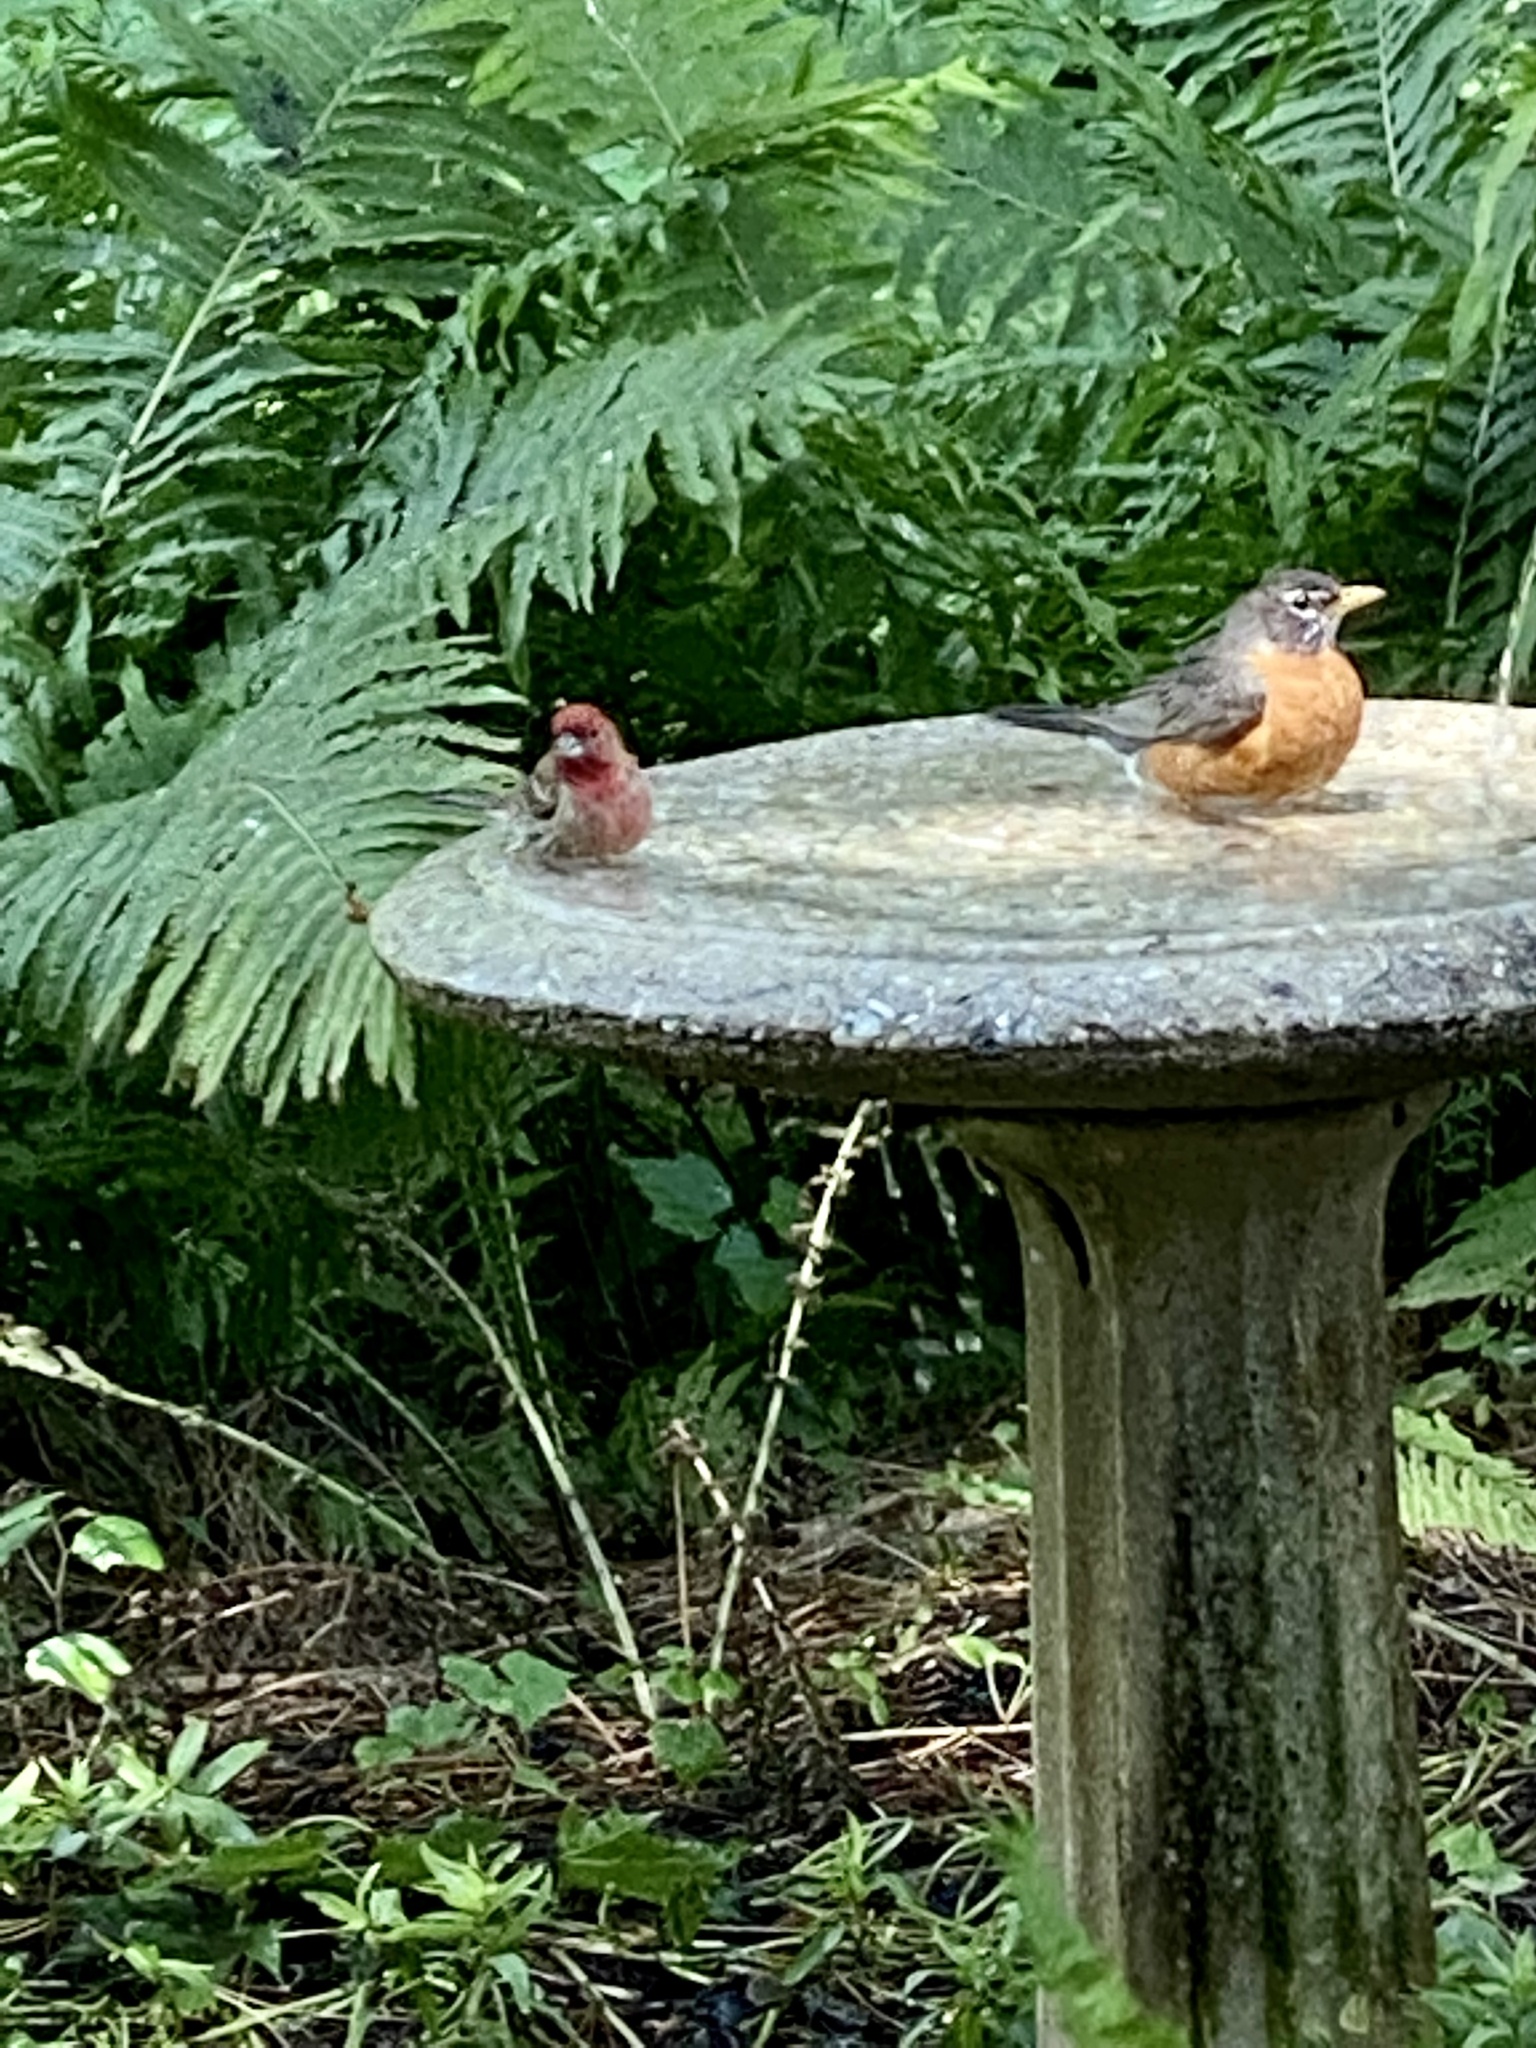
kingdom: Animalia
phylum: Chordata
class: Aves
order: Passeriformes
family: Fringillidae
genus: Haemorhous
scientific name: Haemorhous mexicanus
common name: House finch
